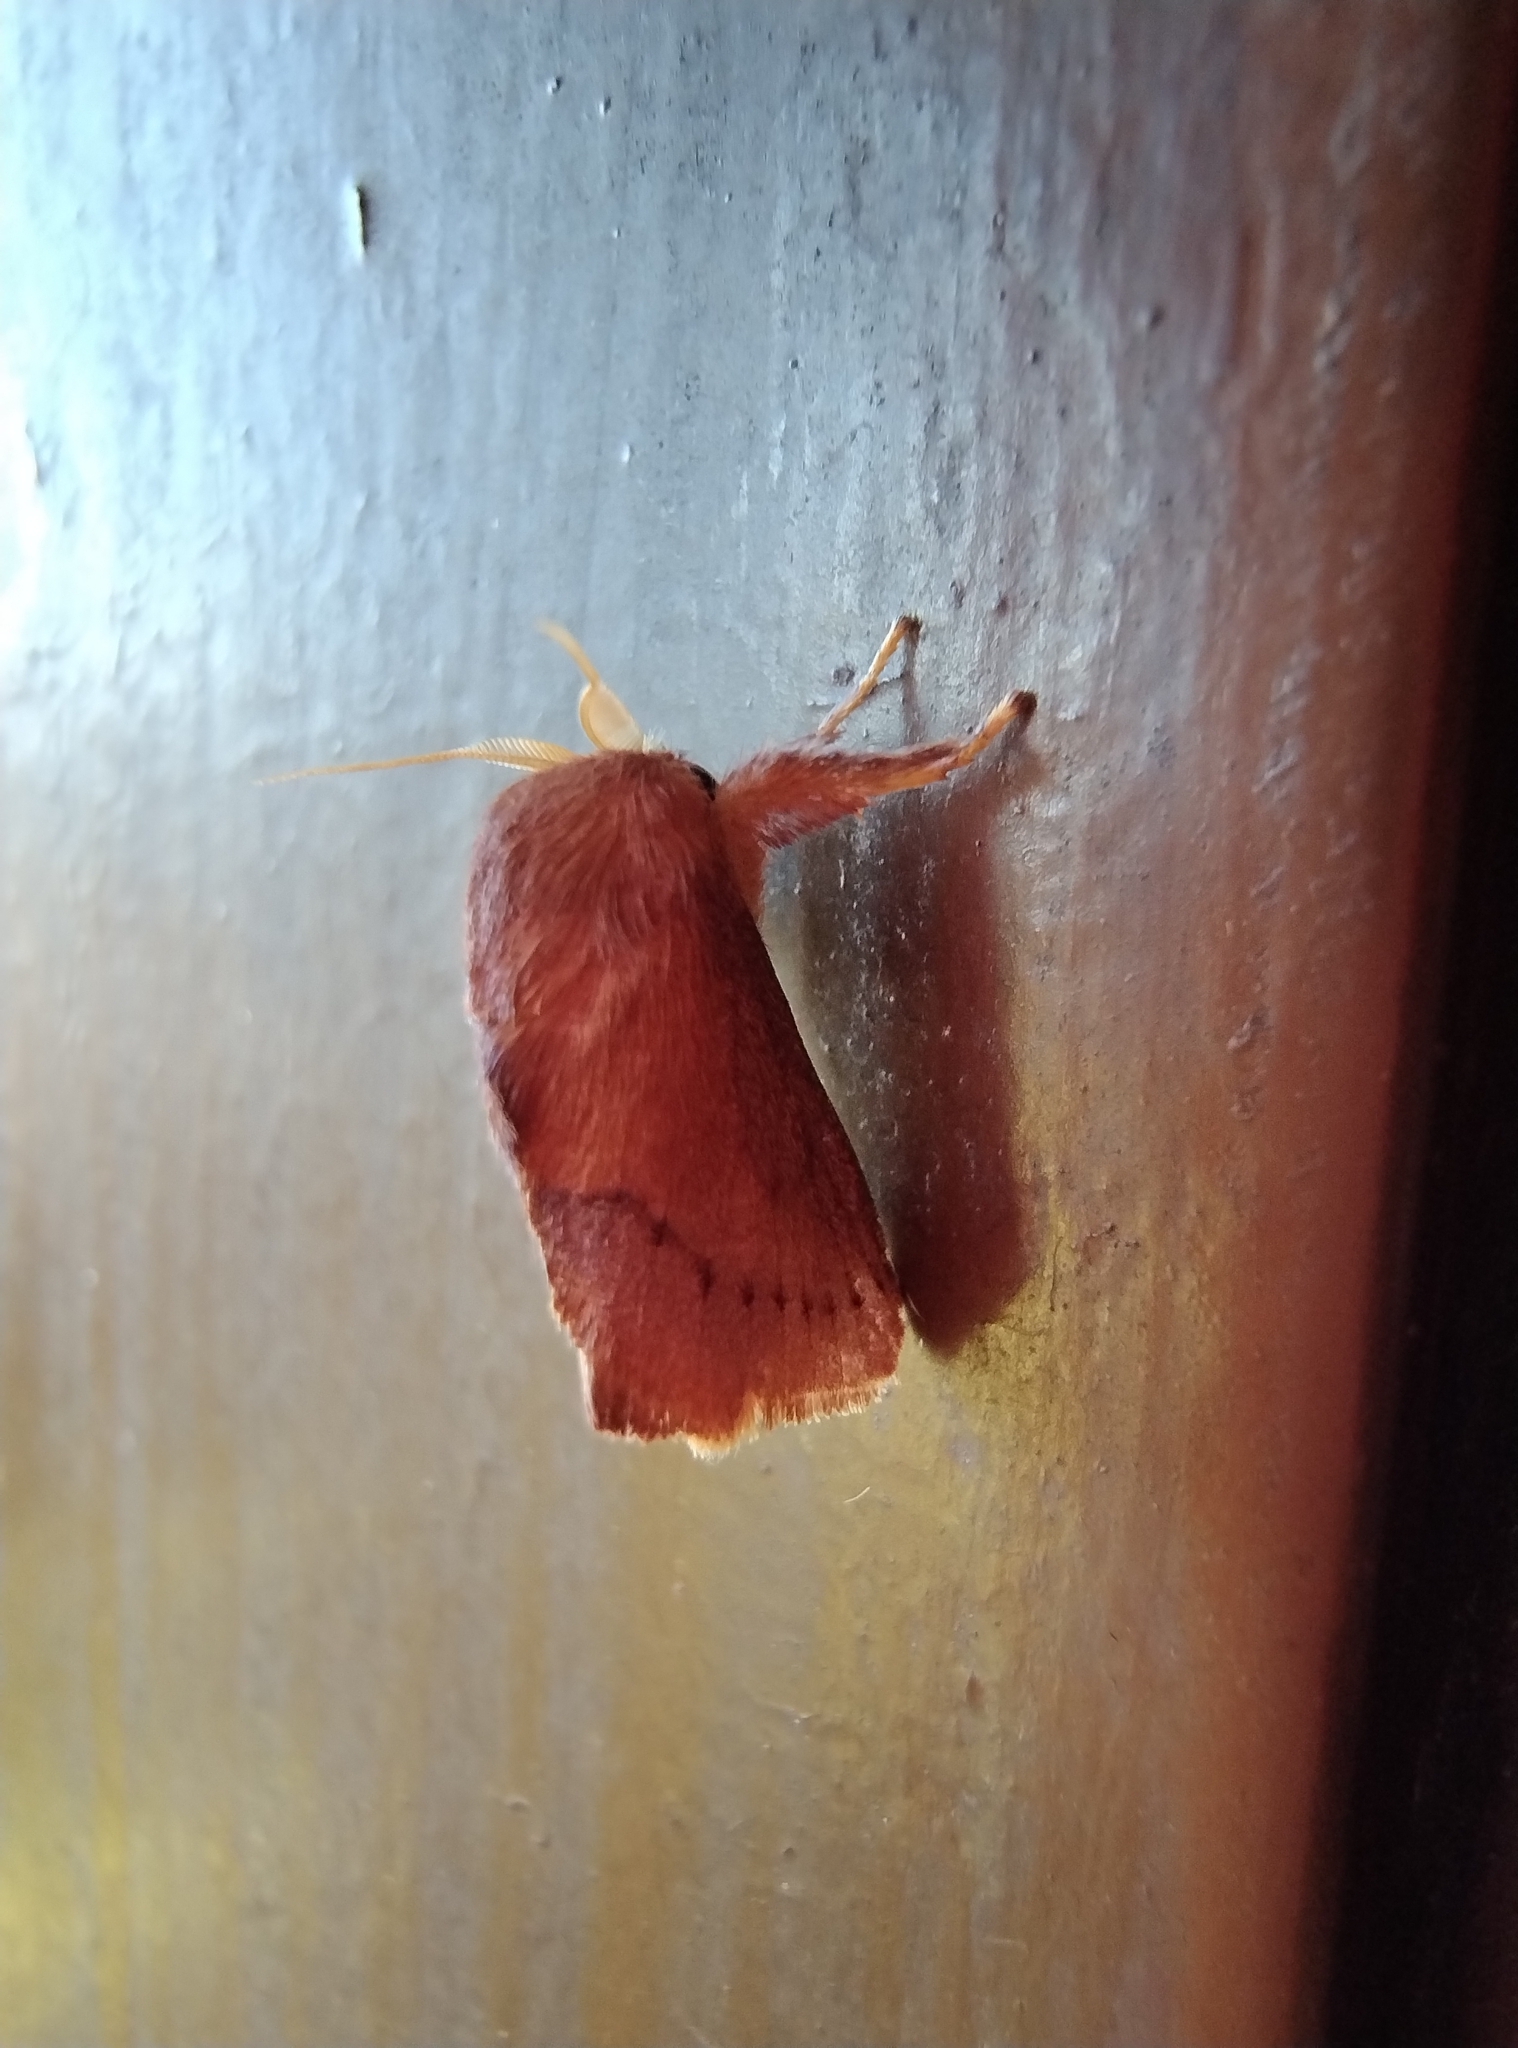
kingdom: Animalia
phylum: Arthropoda
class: Insecta
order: Lepidoptera
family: Limacodidae
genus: Talima
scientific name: Talima
